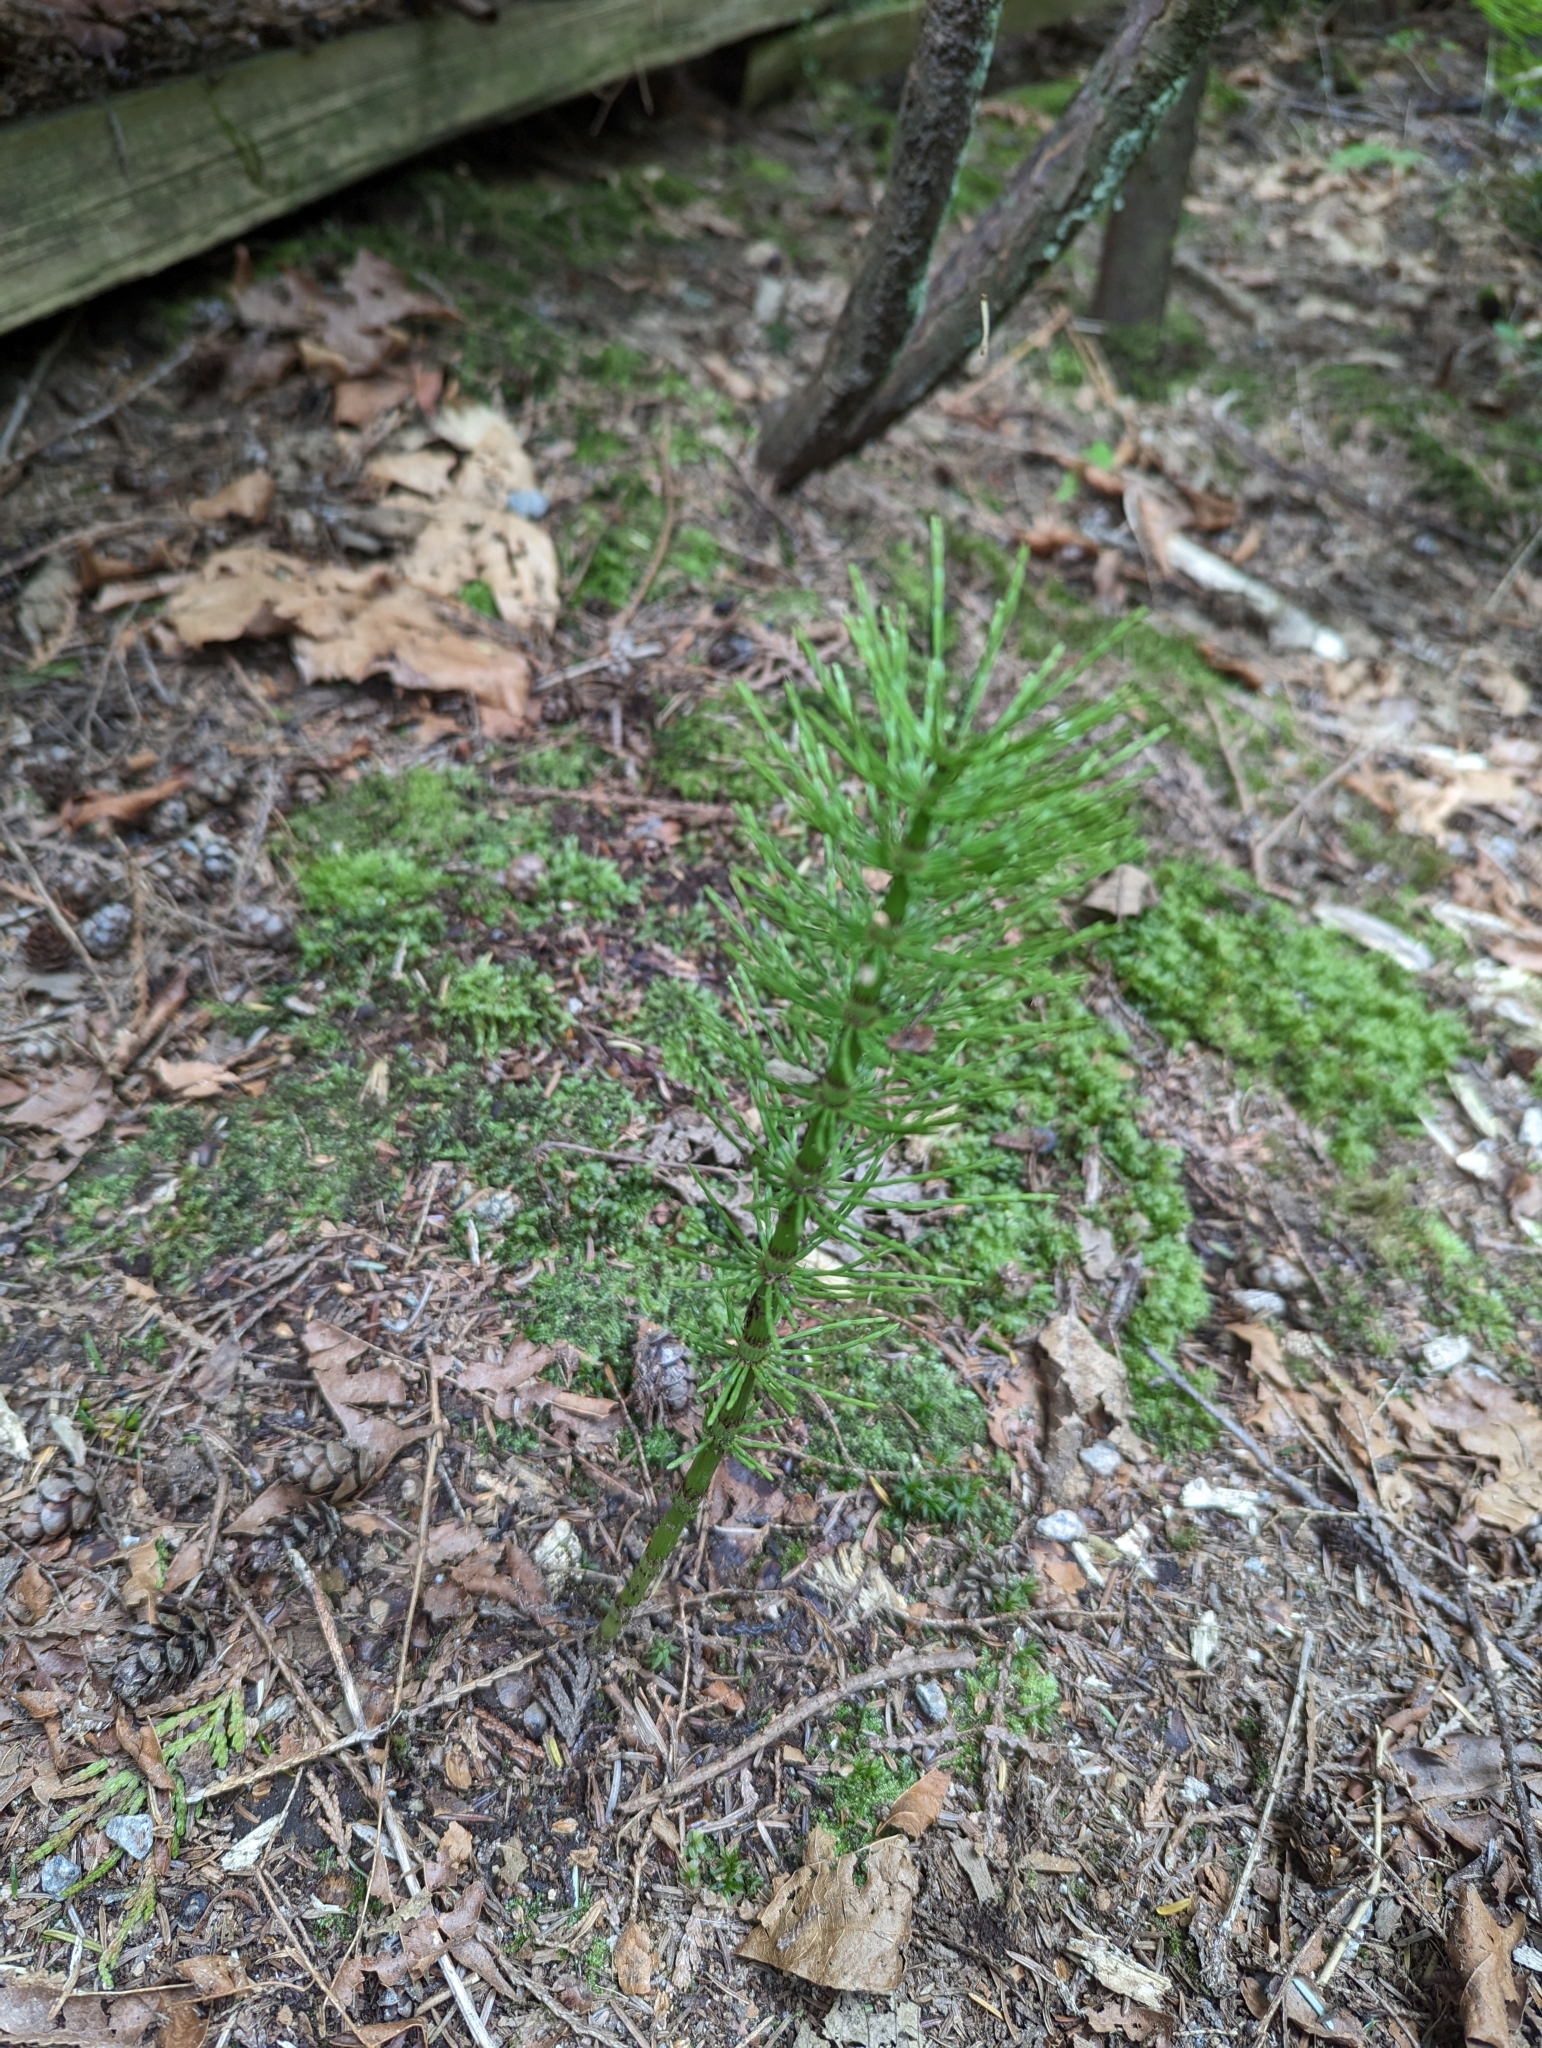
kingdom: Plantae
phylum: Tracheophyta
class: Polypodiopsida
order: Equisetales
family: Equisetaceae
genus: Equisetum
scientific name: Equisetum braunii
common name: Braun's horsetail
